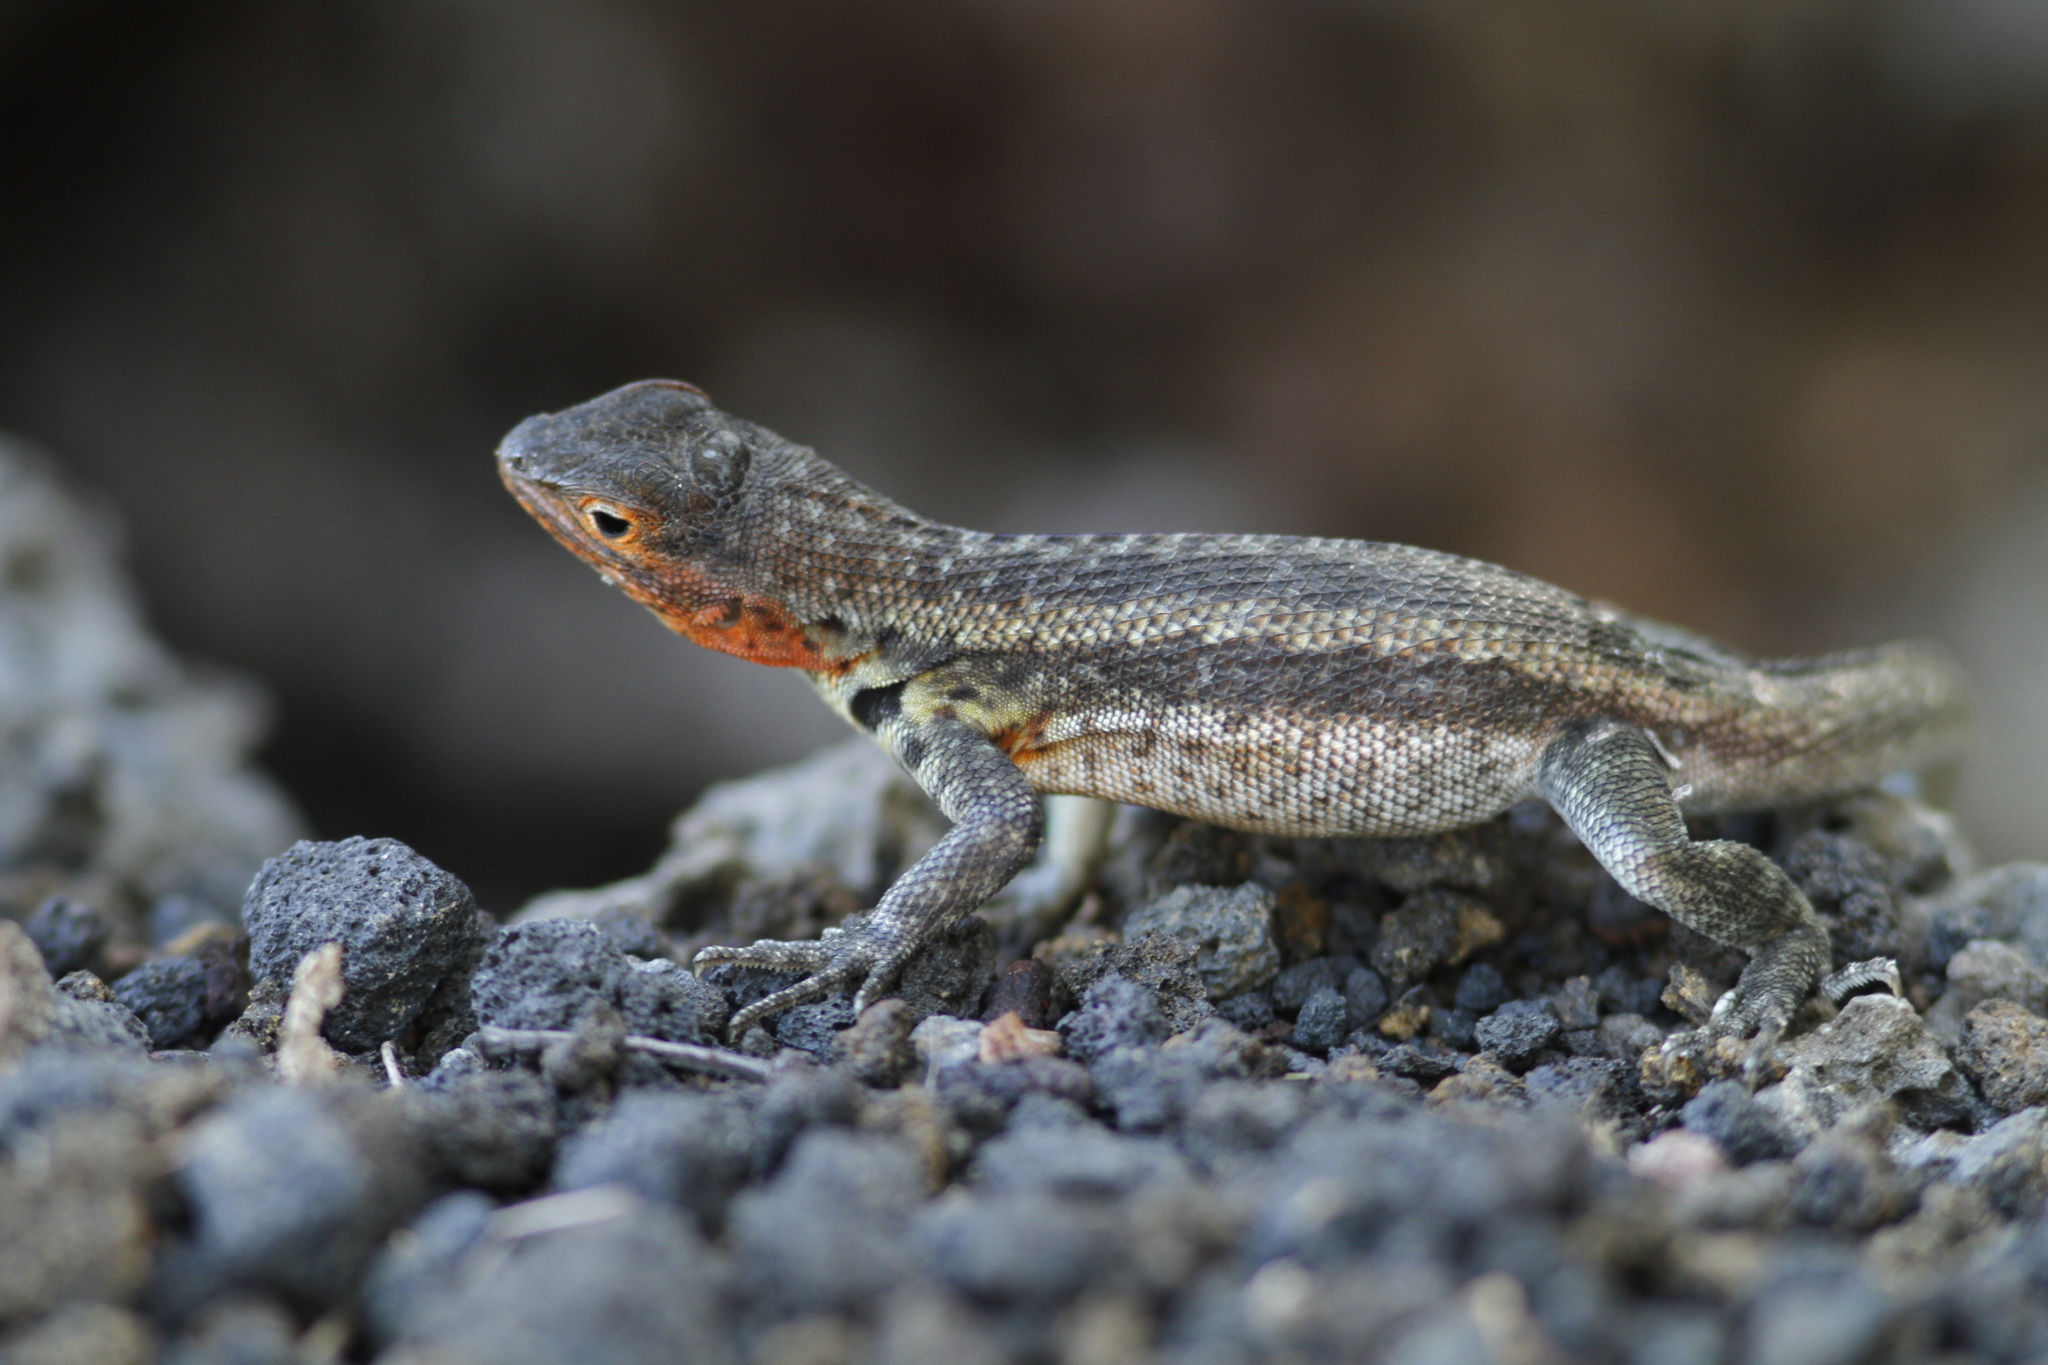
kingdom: Animalia
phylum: Chordata
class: Squamata
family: Tropiduridae
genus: Microlophus
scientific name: Microlophus indefatigabilis
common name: Galapagos lava lizard
